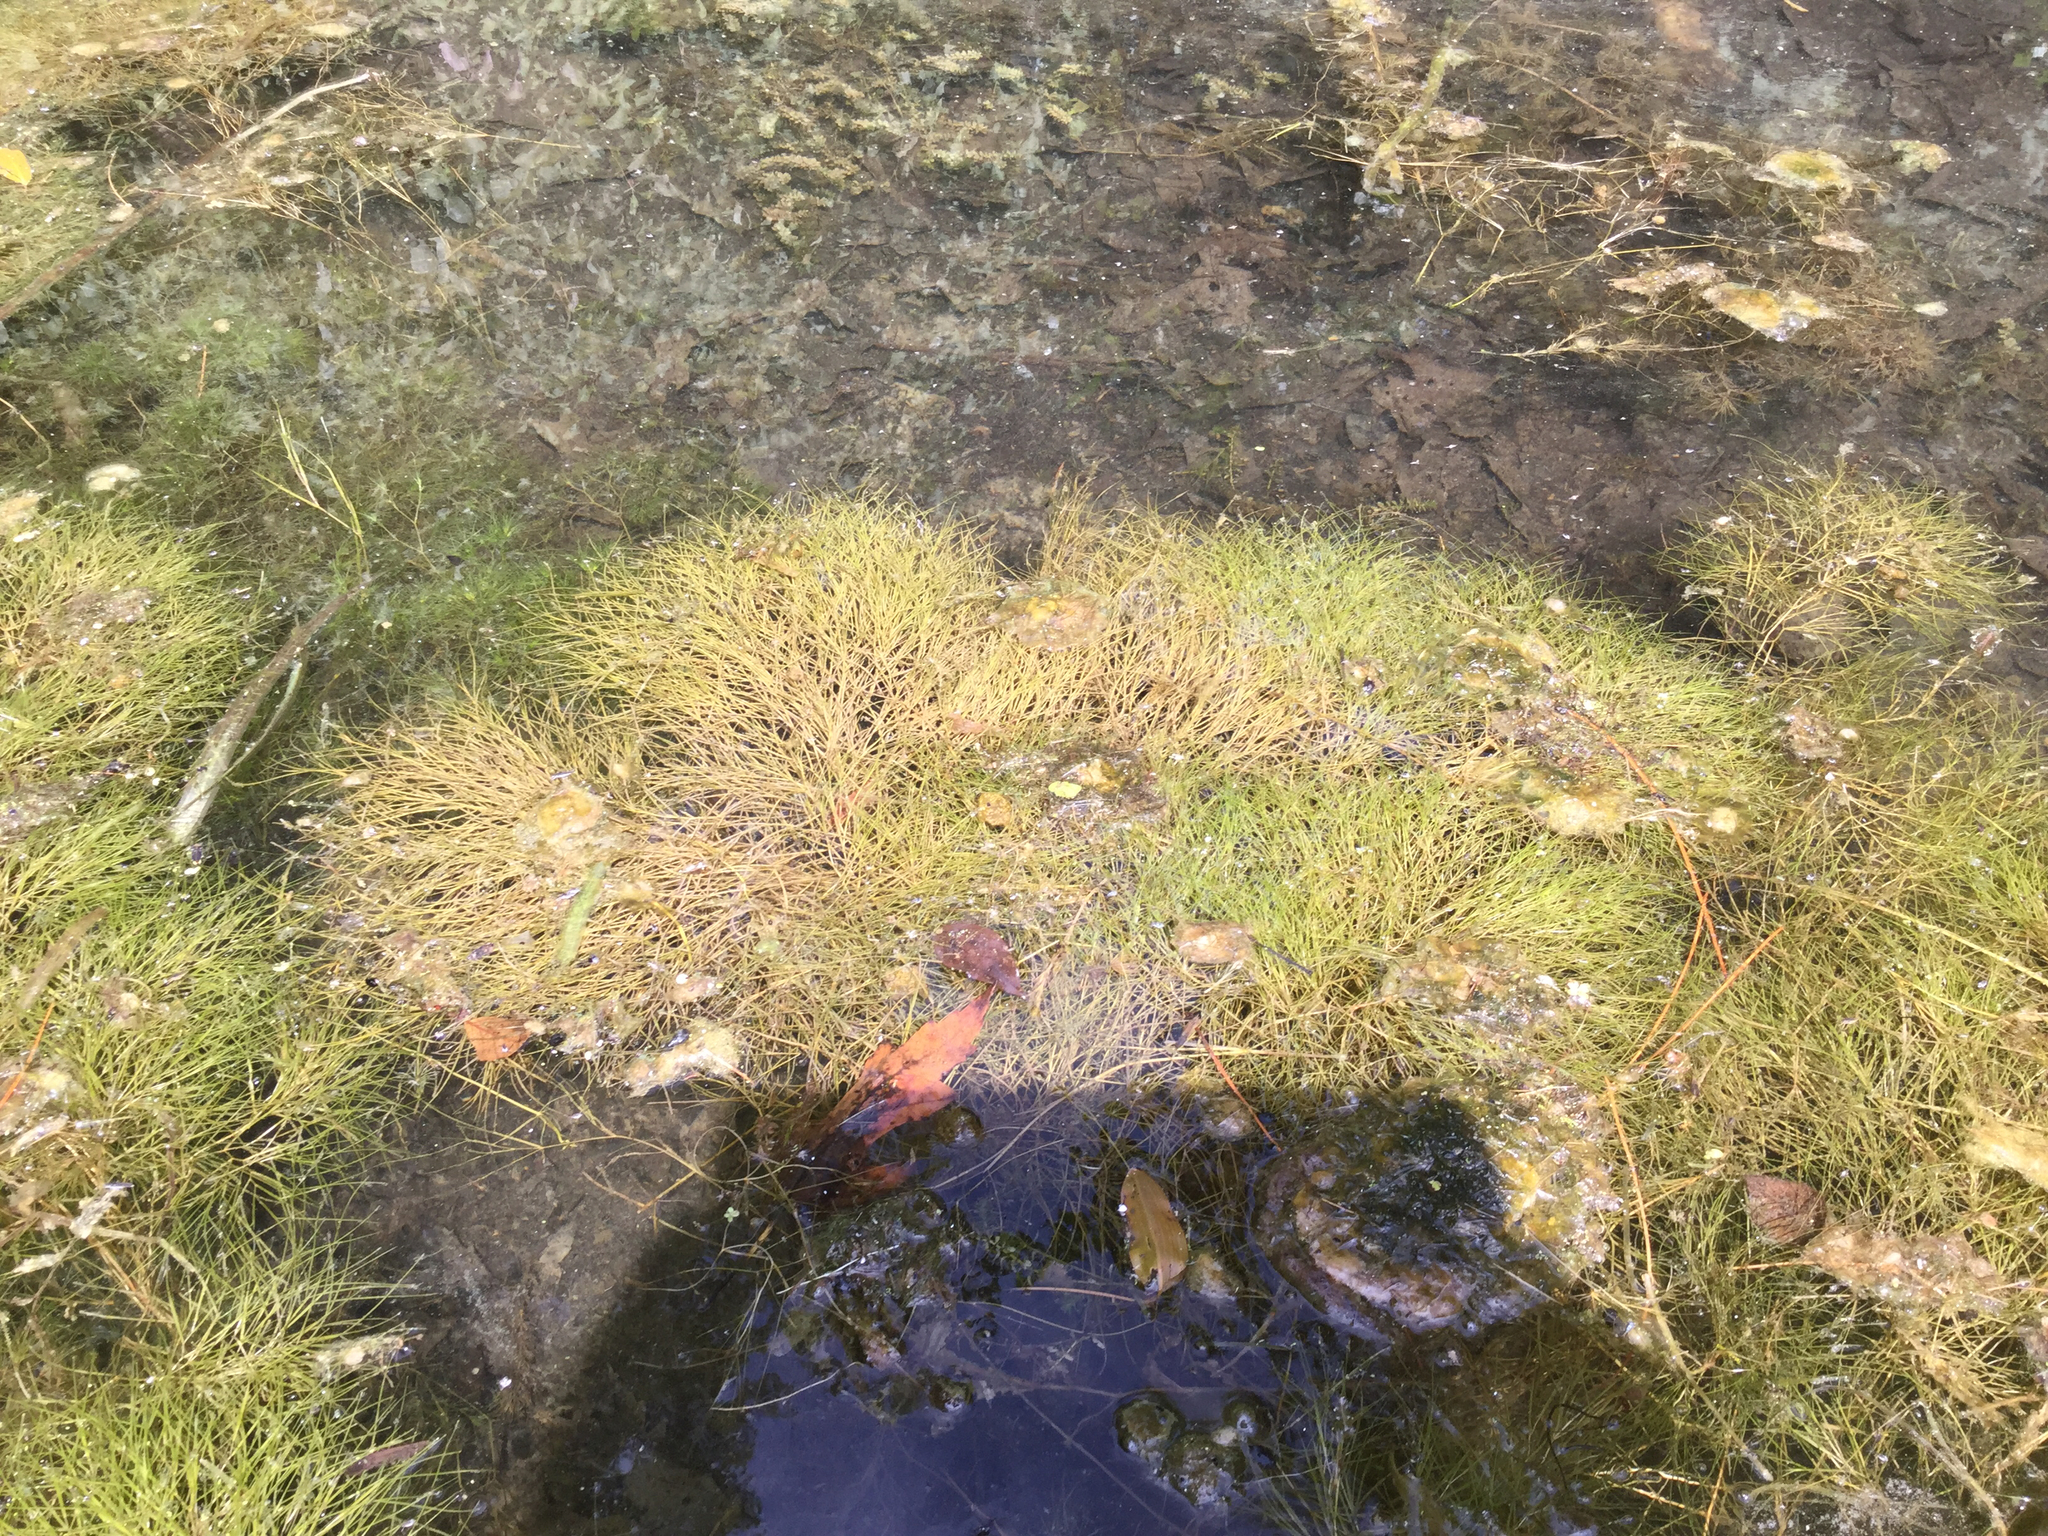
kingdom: Plantae
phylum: Tracheophyta
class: Liliopsida
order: Alismatales
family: Potamogetonaceae
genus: Stuckenia
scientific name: Stuckenia pectinata
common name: Sago pondweed
